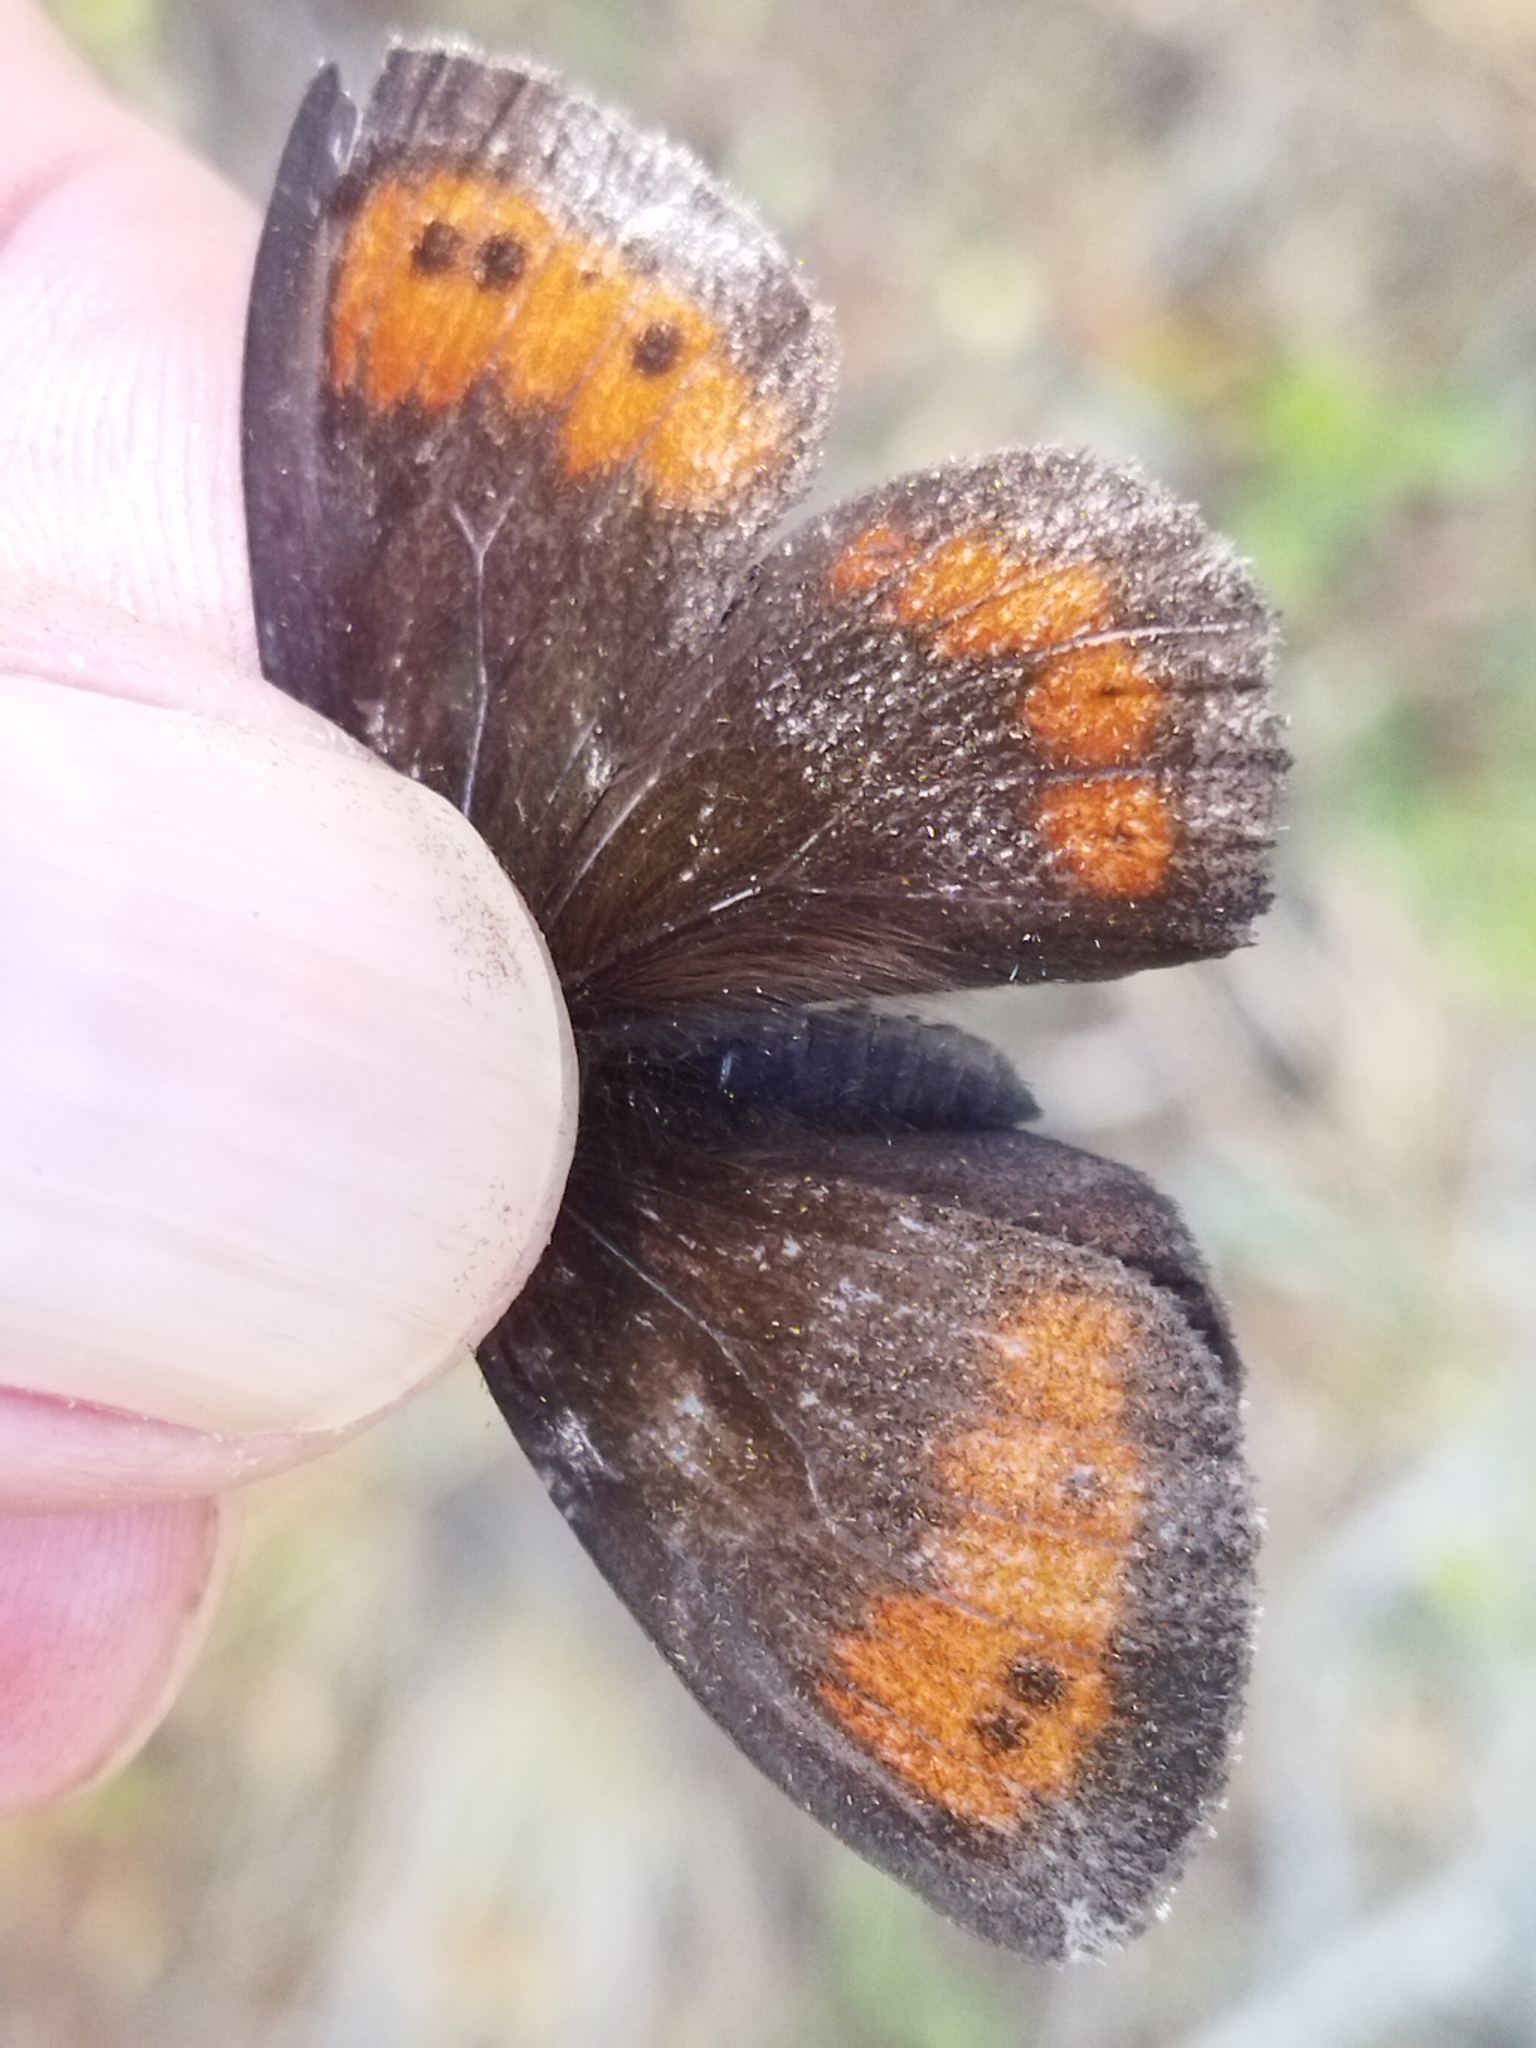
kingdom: Animalia
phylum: Arthropoda
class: Insecta
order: Lepidoptera
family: Nymphalidae
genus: Erebia
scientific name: Erebia euryale
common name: Large ringlet
